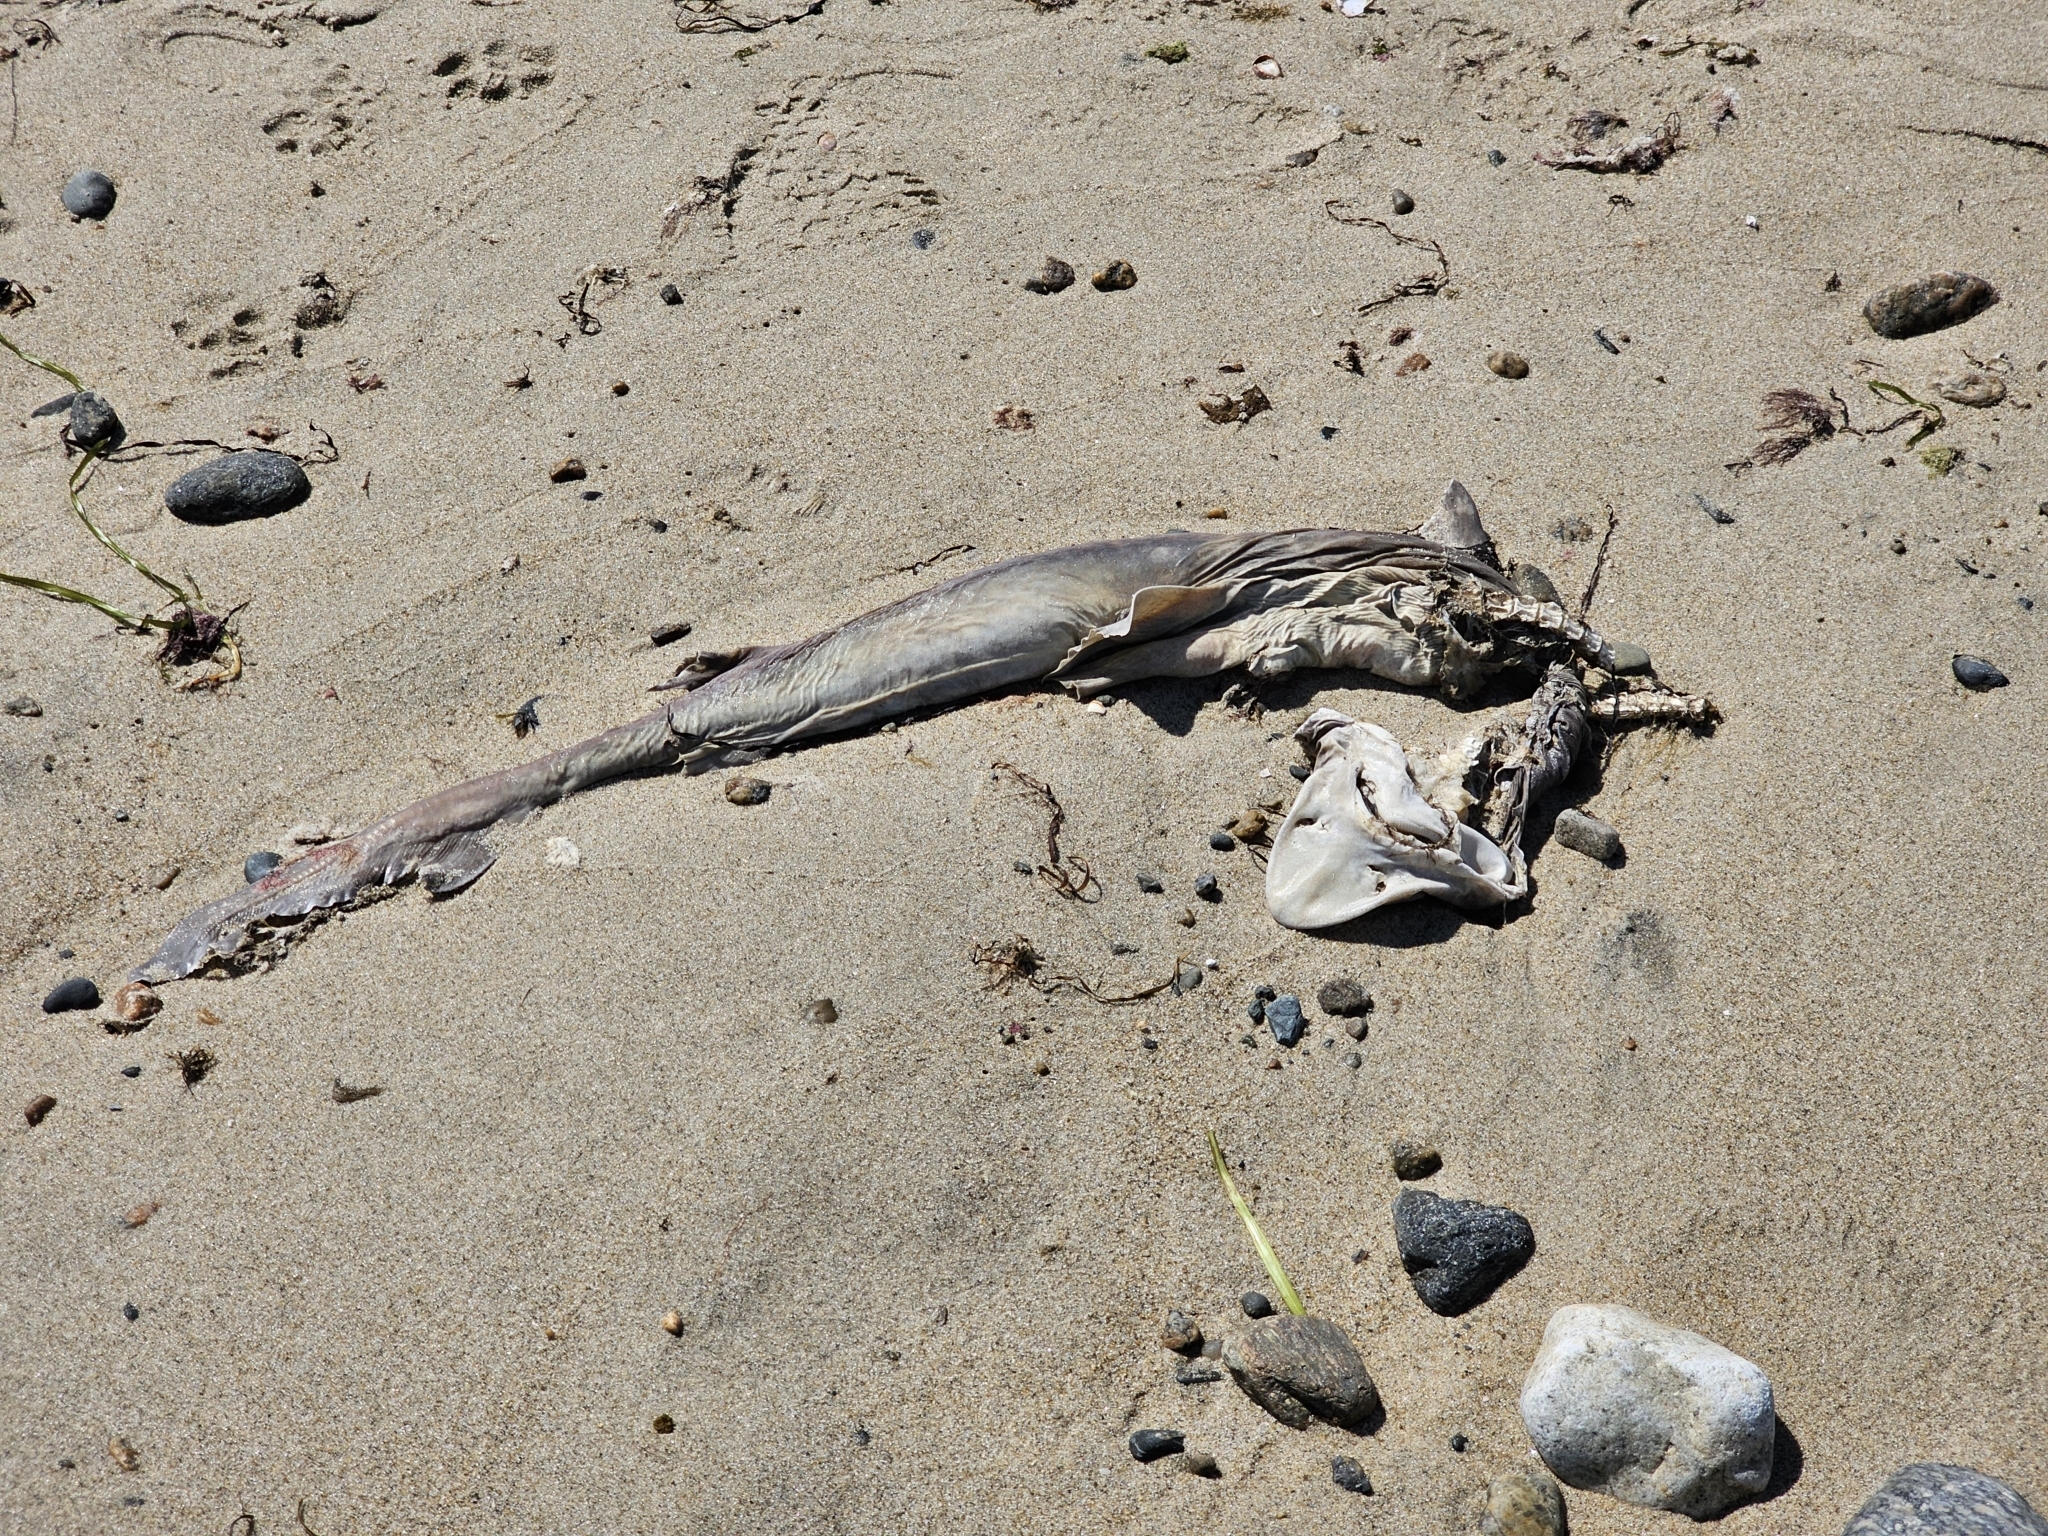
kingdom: Animalia
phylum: Chordata
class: Elasmobranchii
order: Carcharhiniformes
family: Triakidae
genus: Mustelus
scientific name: Mustelus canis
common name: Smooth dogfish
